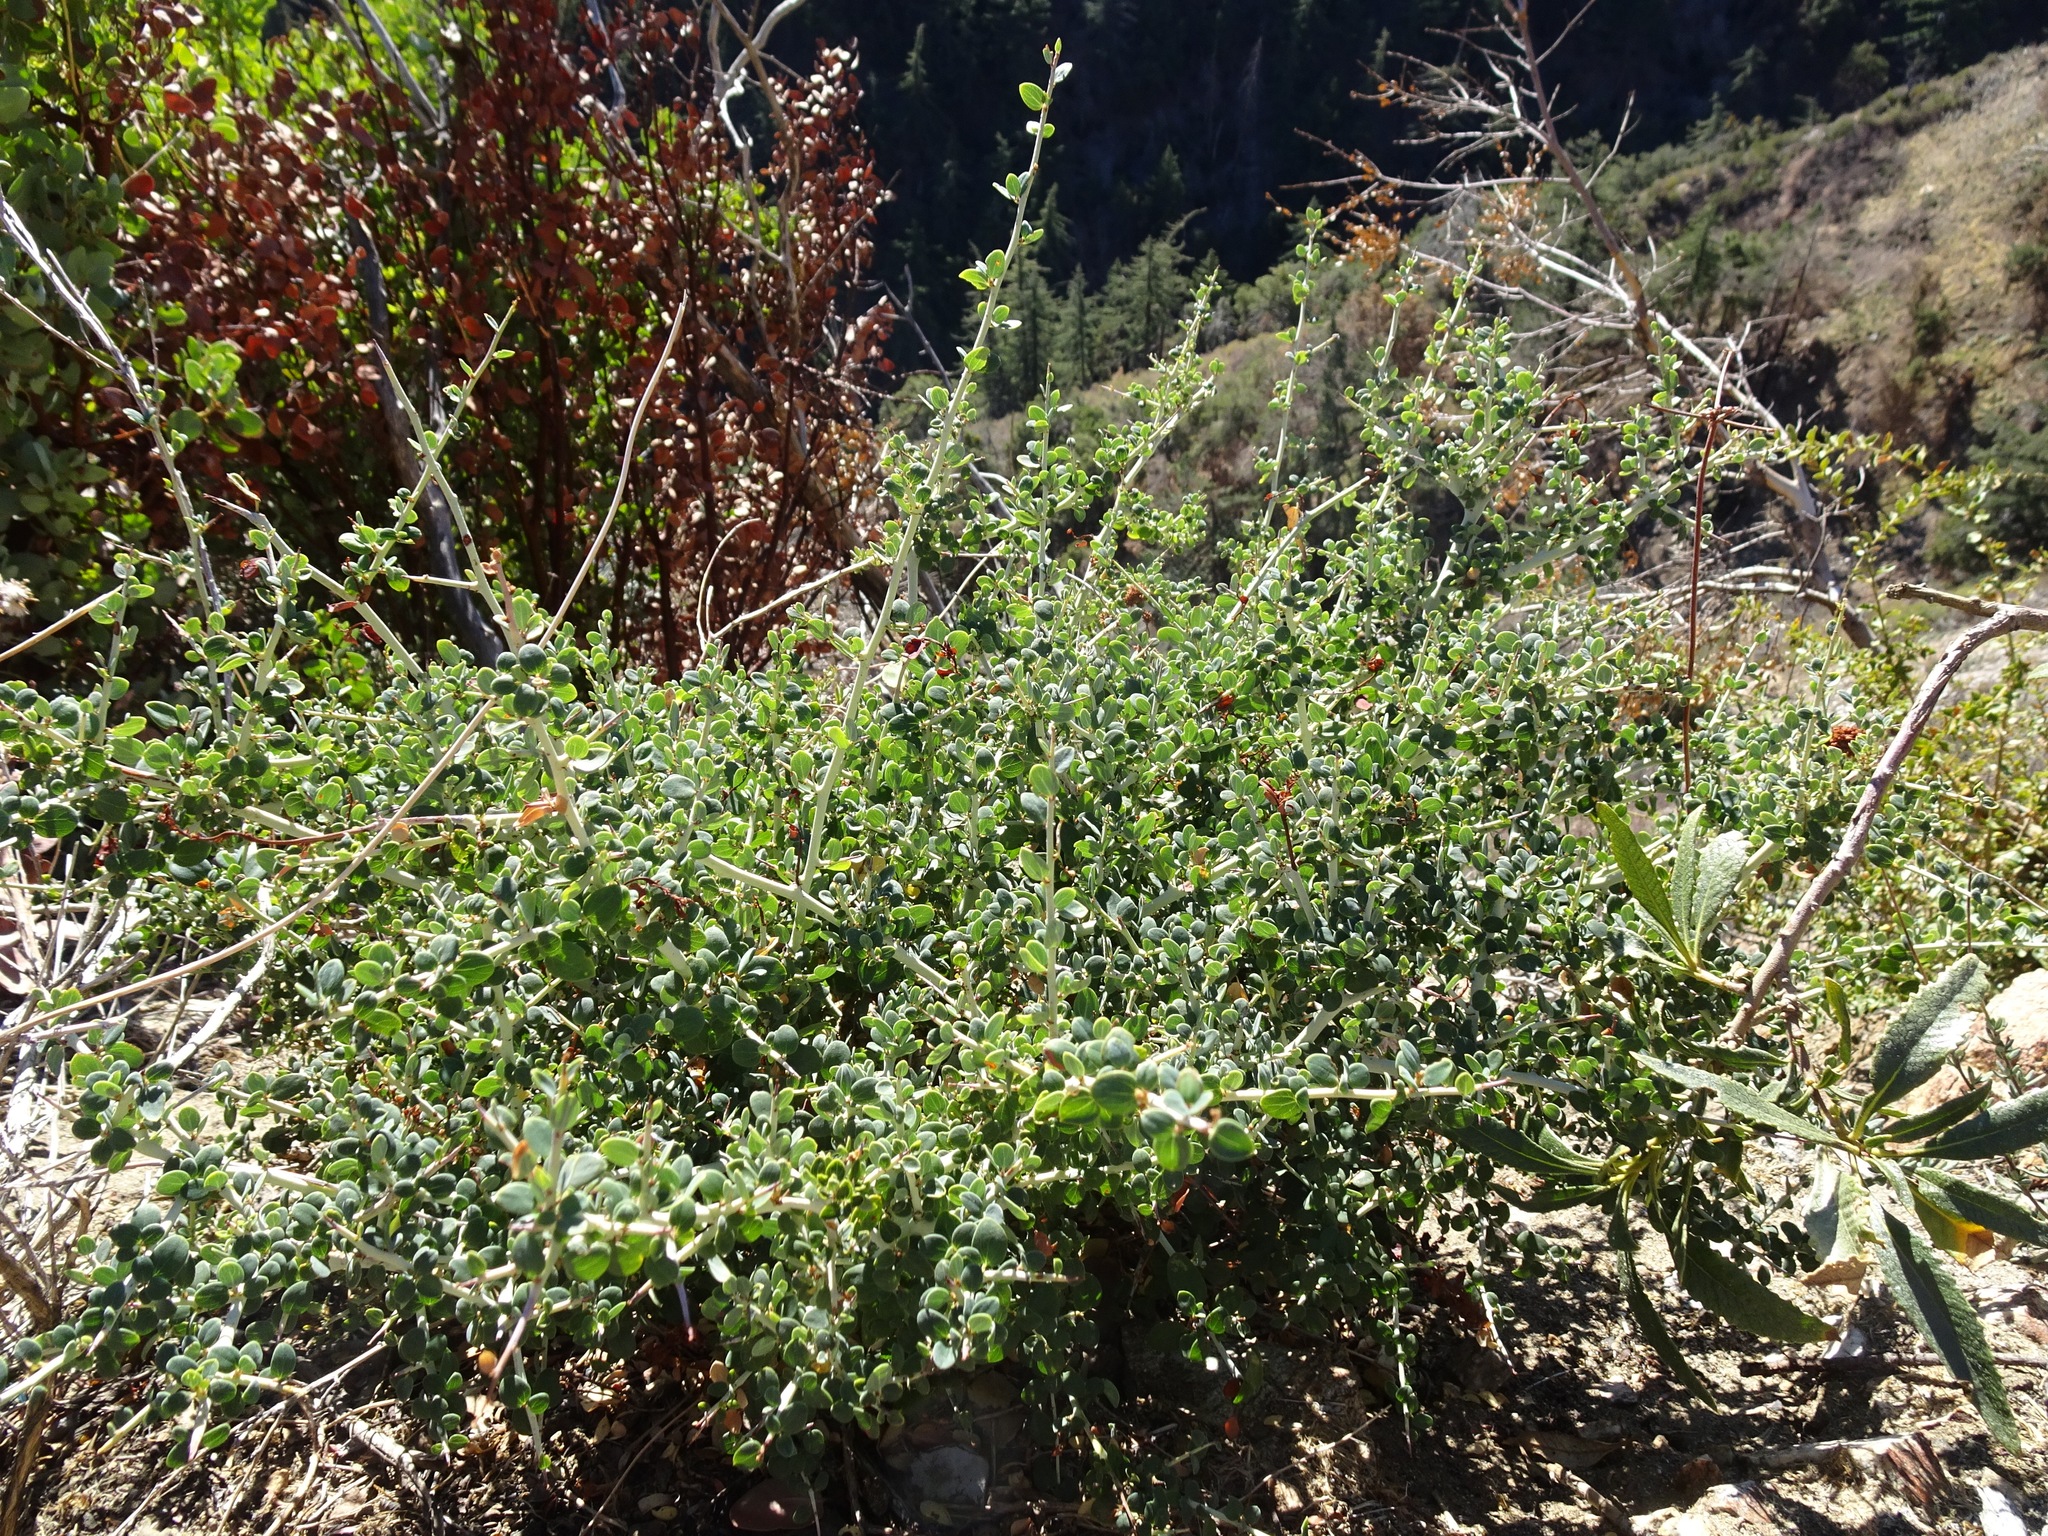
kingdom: Plantae
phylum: Tracheophyta
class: Magnoliopsida
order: Rosales
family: Rhamnaceae
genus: Ceanothus
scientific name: Ceanothus leucodermis
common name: Chaparral whitethorn
